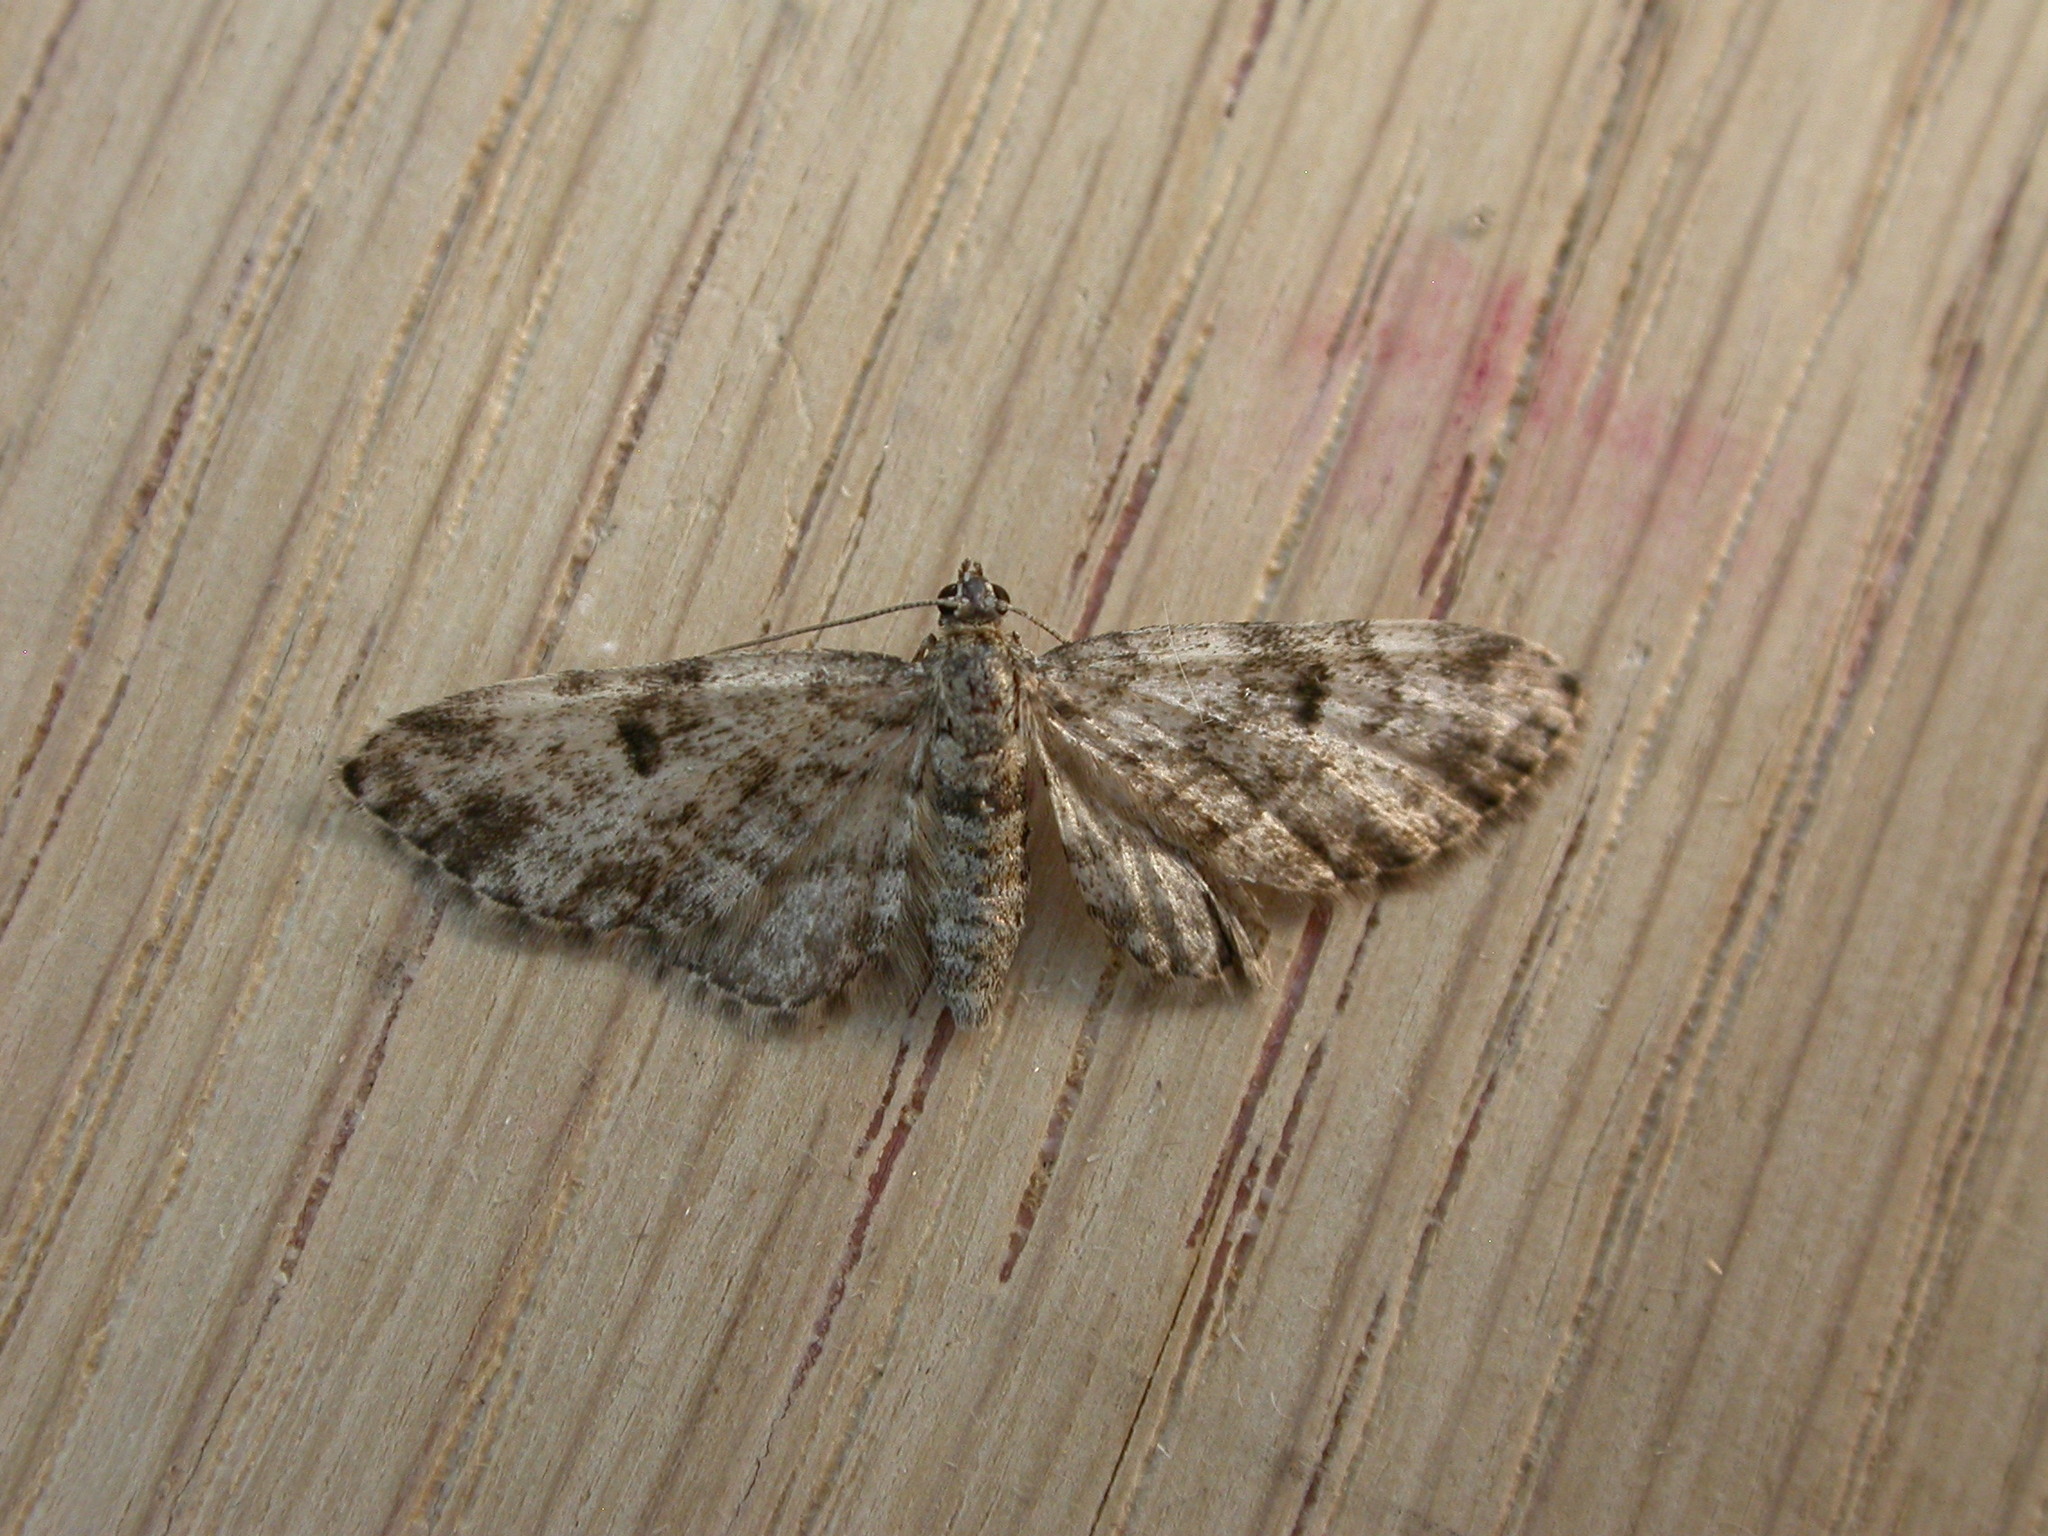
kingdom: Animalia
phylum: Arthropoda
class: Insecta
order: Lepidoptera
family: Geometridae
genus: Eupithecia
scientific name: Eupithecia tantillaria
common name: Dwarf pug
